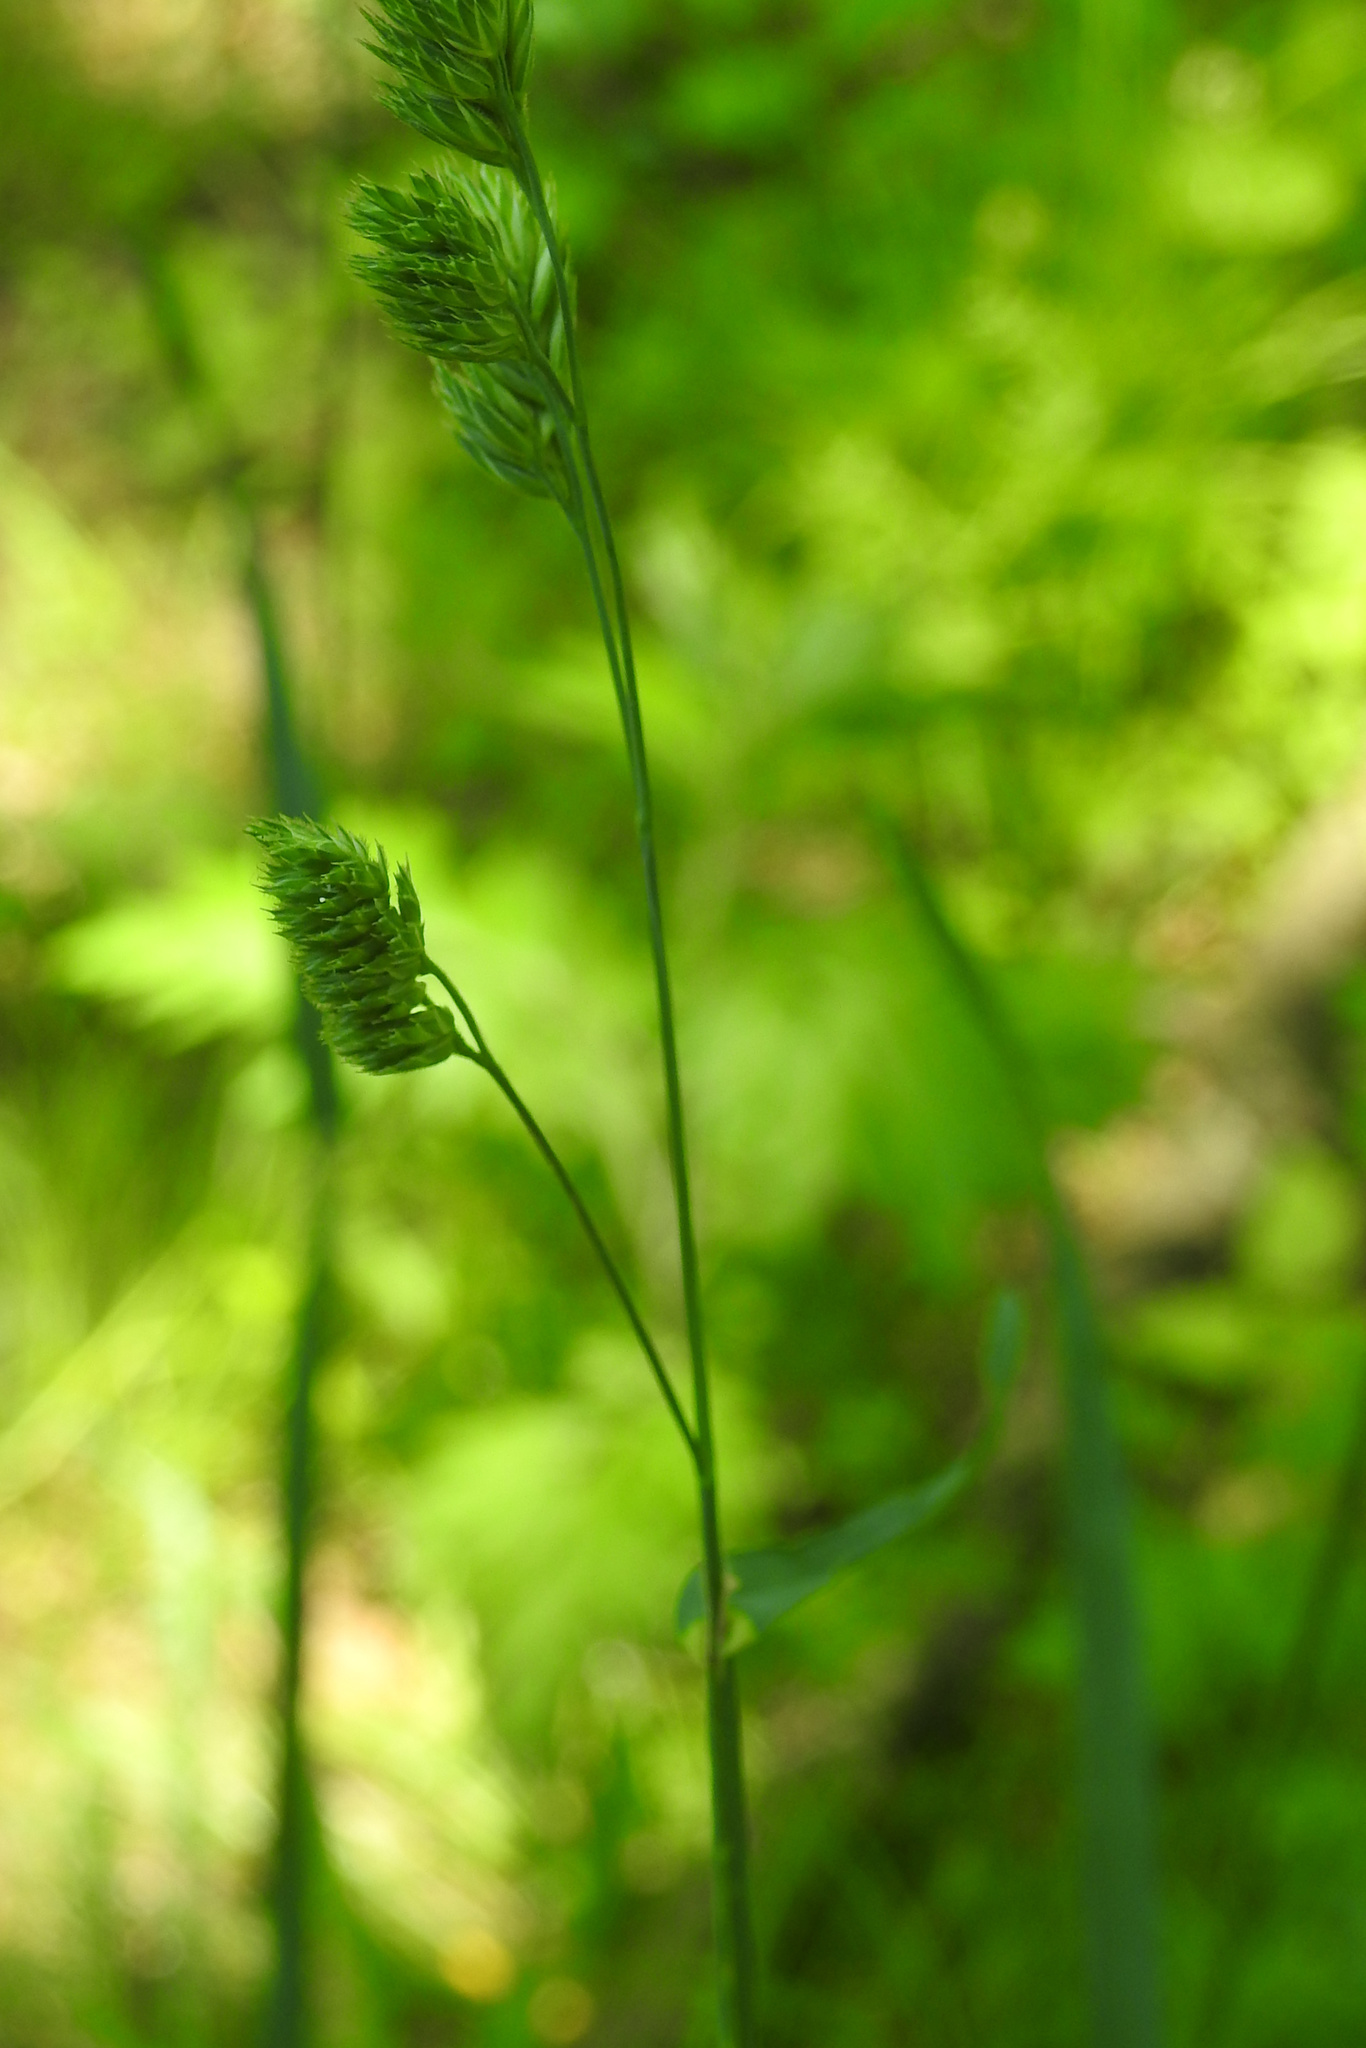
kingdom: Plantae
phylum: Tracheophyta
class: Liliopsida
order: Poales
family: Poaceae
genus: Dactylis
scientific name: Dactylis glomerata
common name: Orchardgrass
